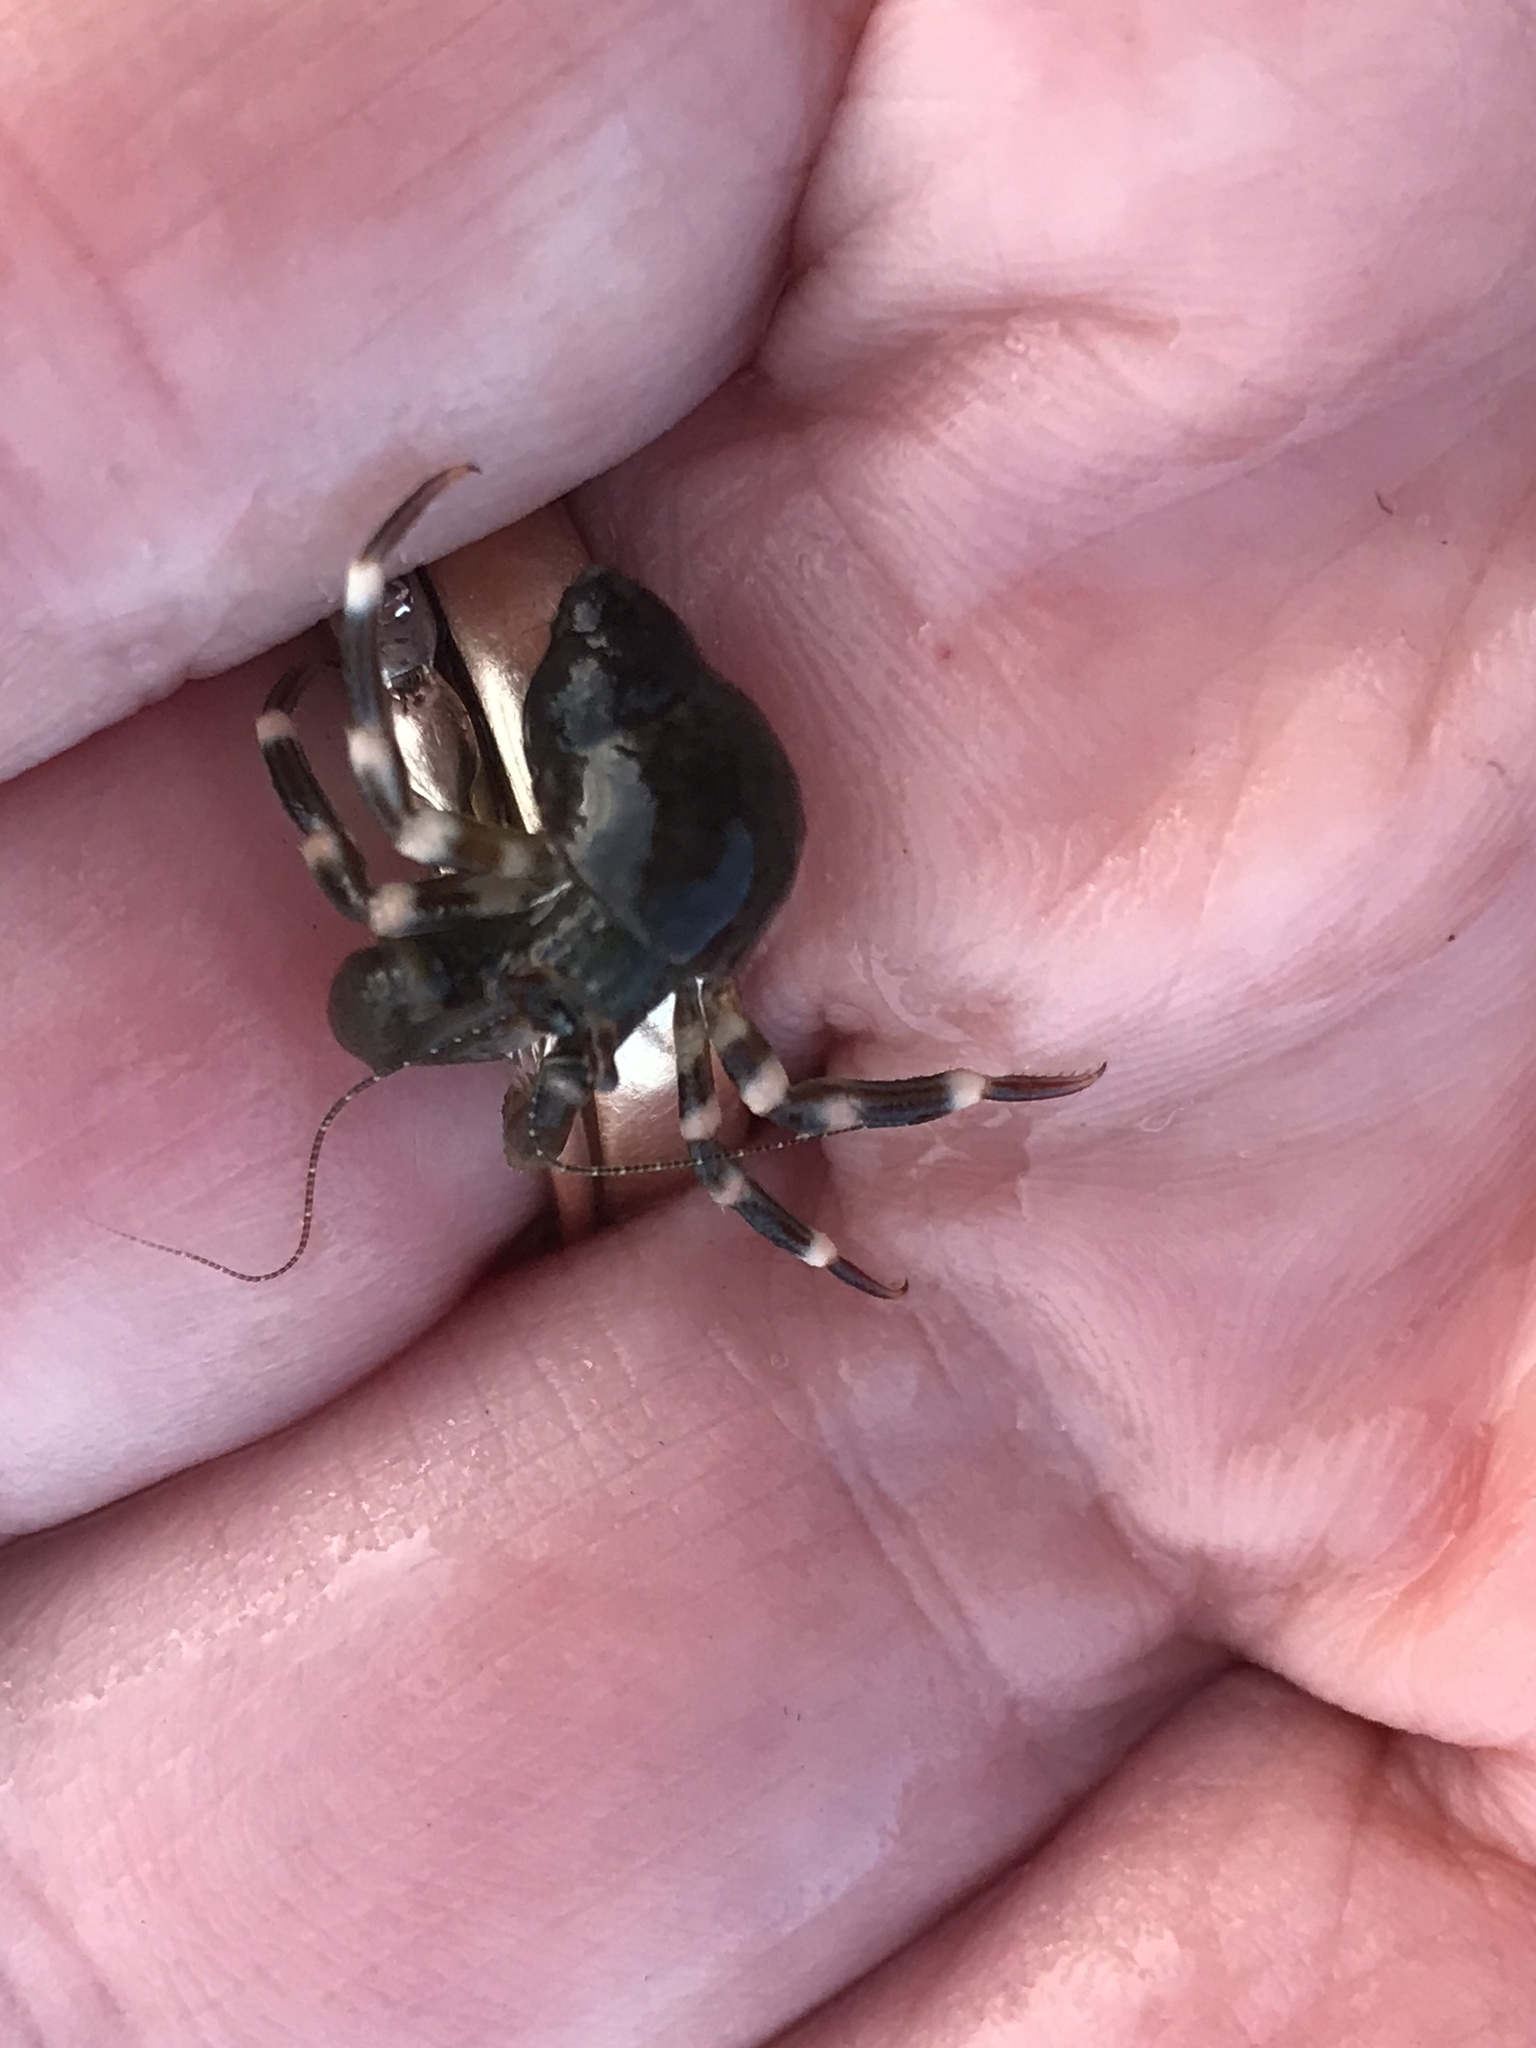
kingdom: Animalia
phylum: Arthropoda
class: Malacostraca
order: Decapoda
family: Paguridae
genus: Pagurus
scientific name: Pagurus hirsutiusculus
